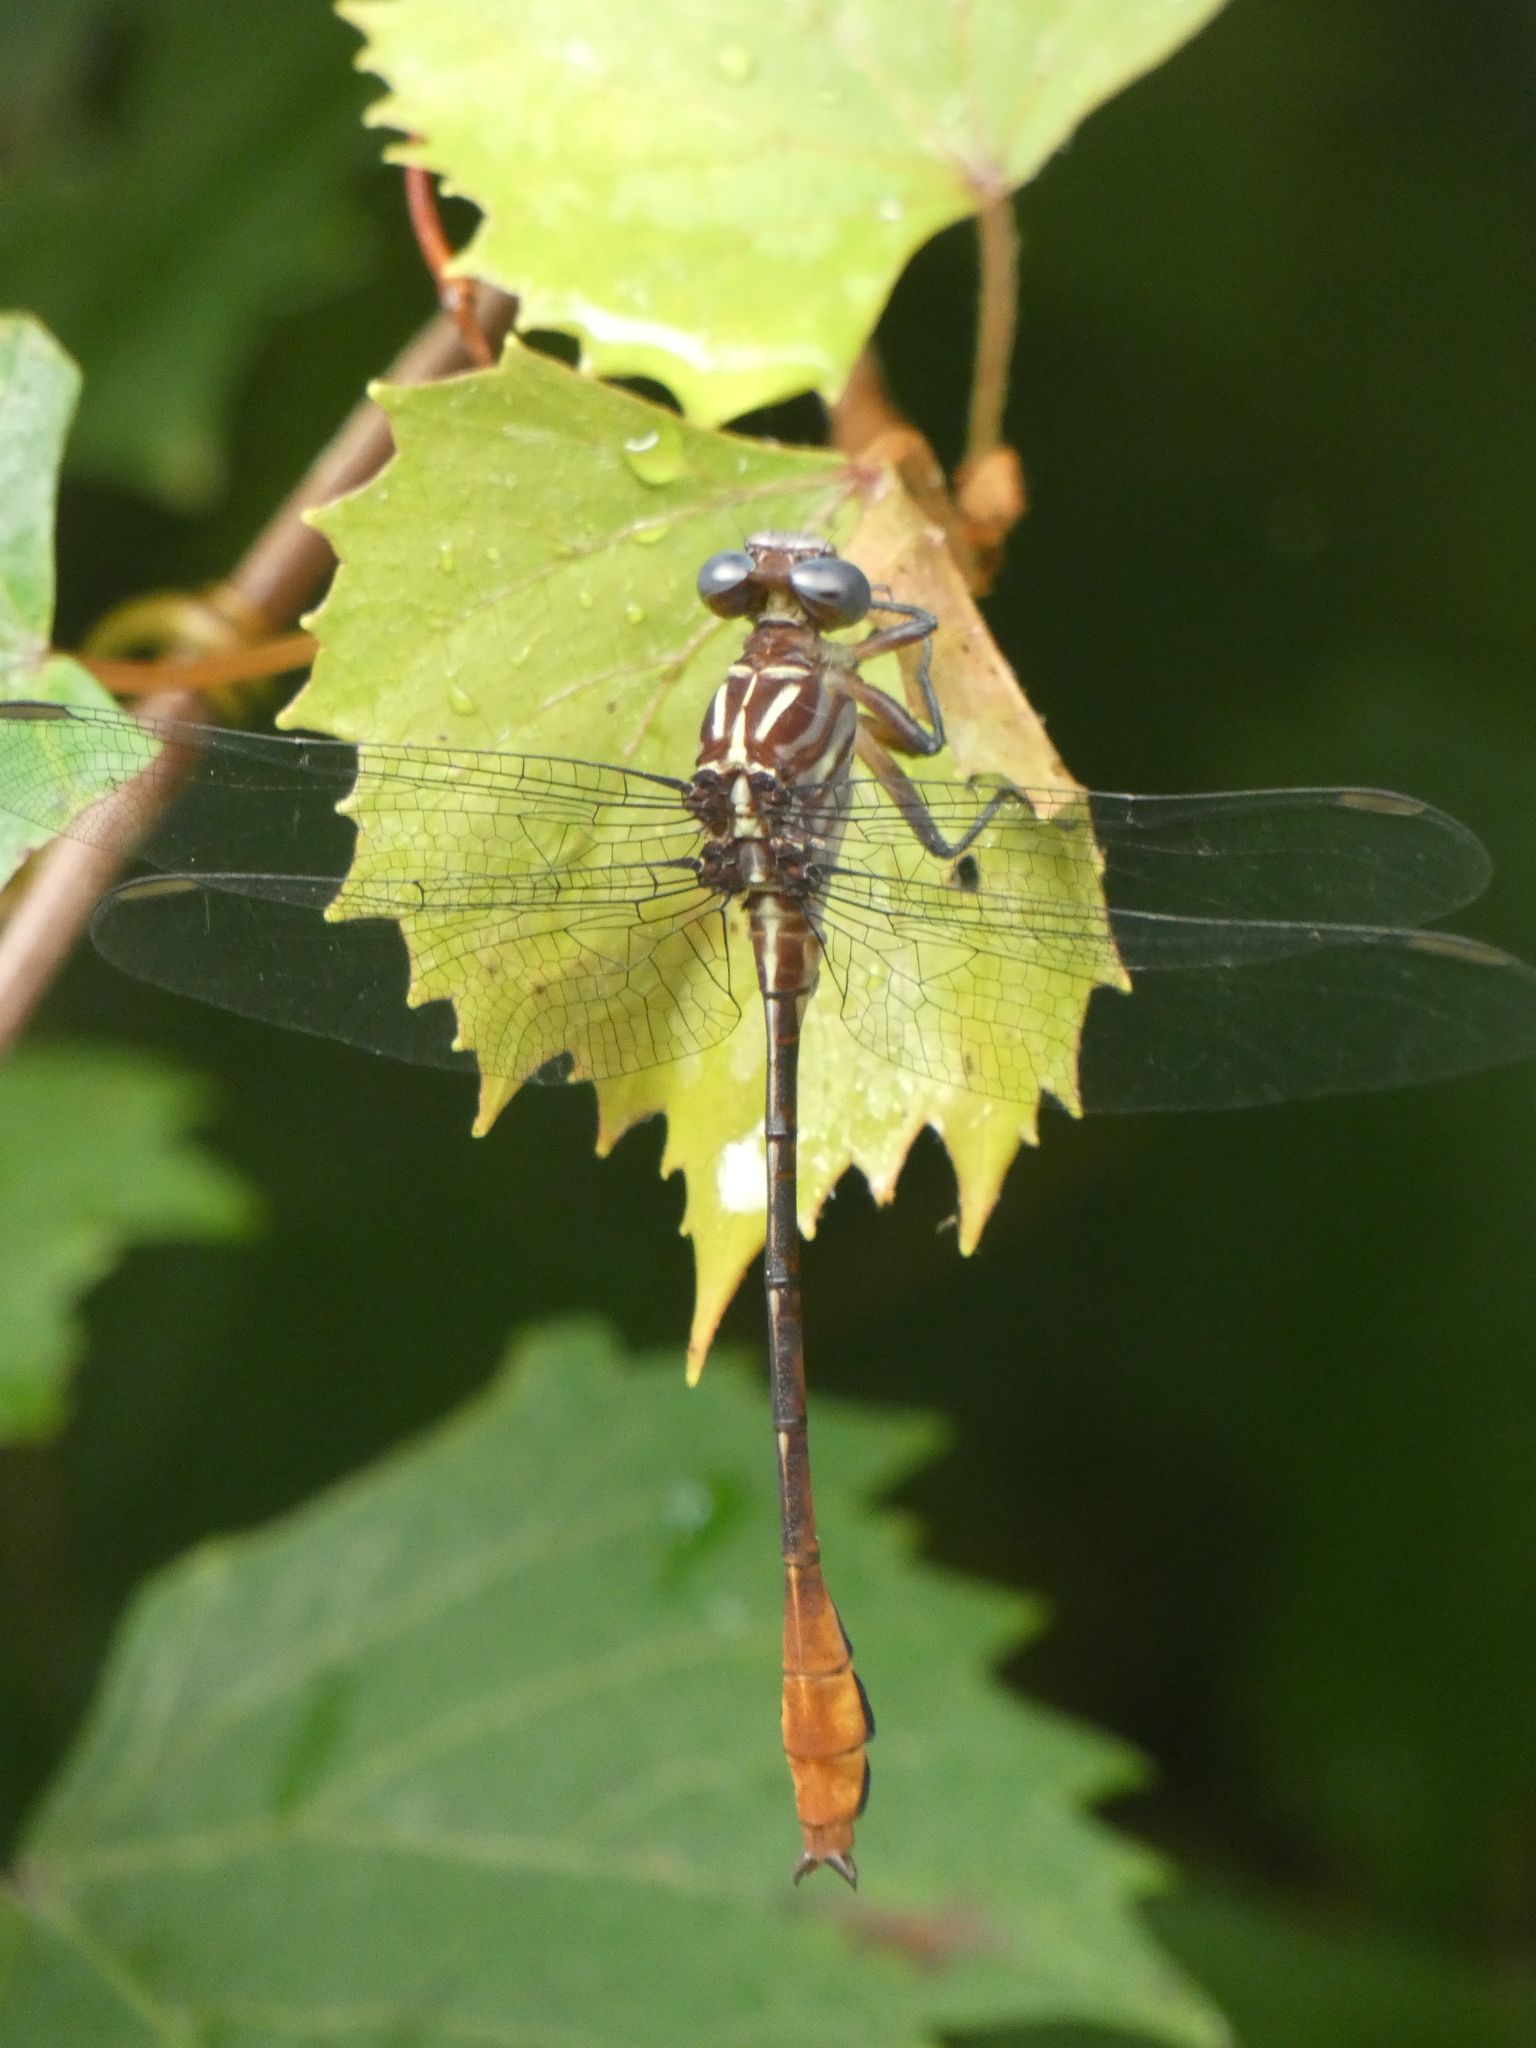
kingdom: Animalia
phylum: Arthropoda
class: Insecta
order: Odonata
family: Gomphidae
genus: Stylurus
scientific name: Stylurus plagiatus
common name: Russet-tipped clubtail
